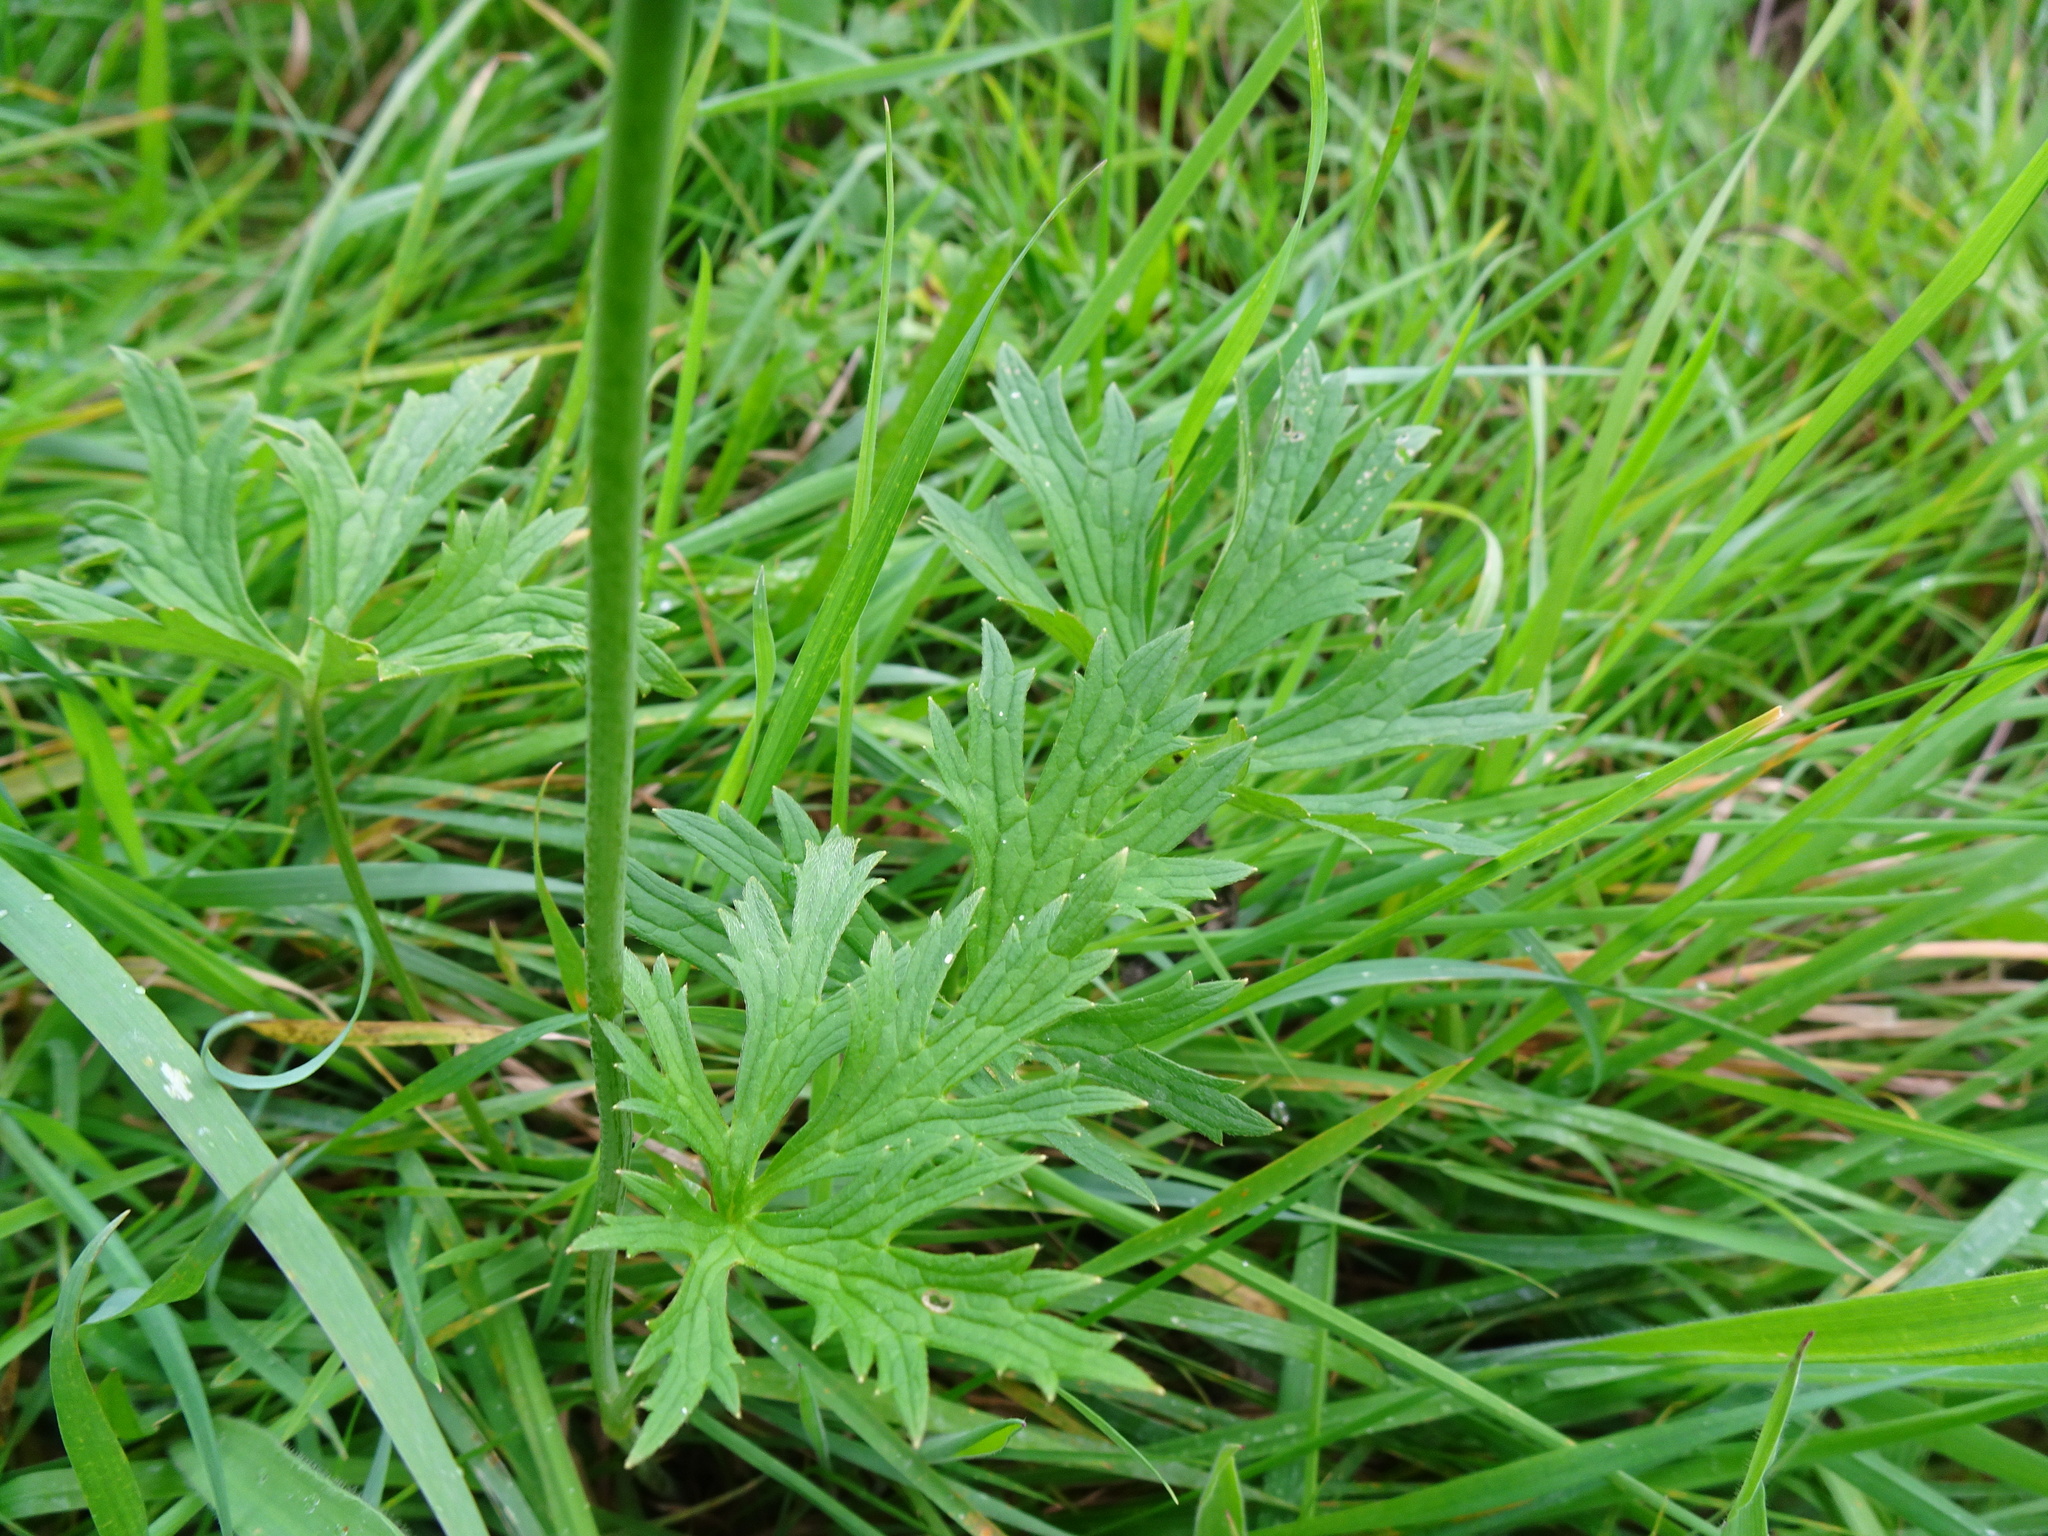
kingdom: Plantae
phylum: Tracheophyta
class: Magnoliopsida
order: Ranunculales
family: Ranunculaceae
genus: Ranunculus
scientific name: Ranunculus acris
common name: Meadow buttercup
